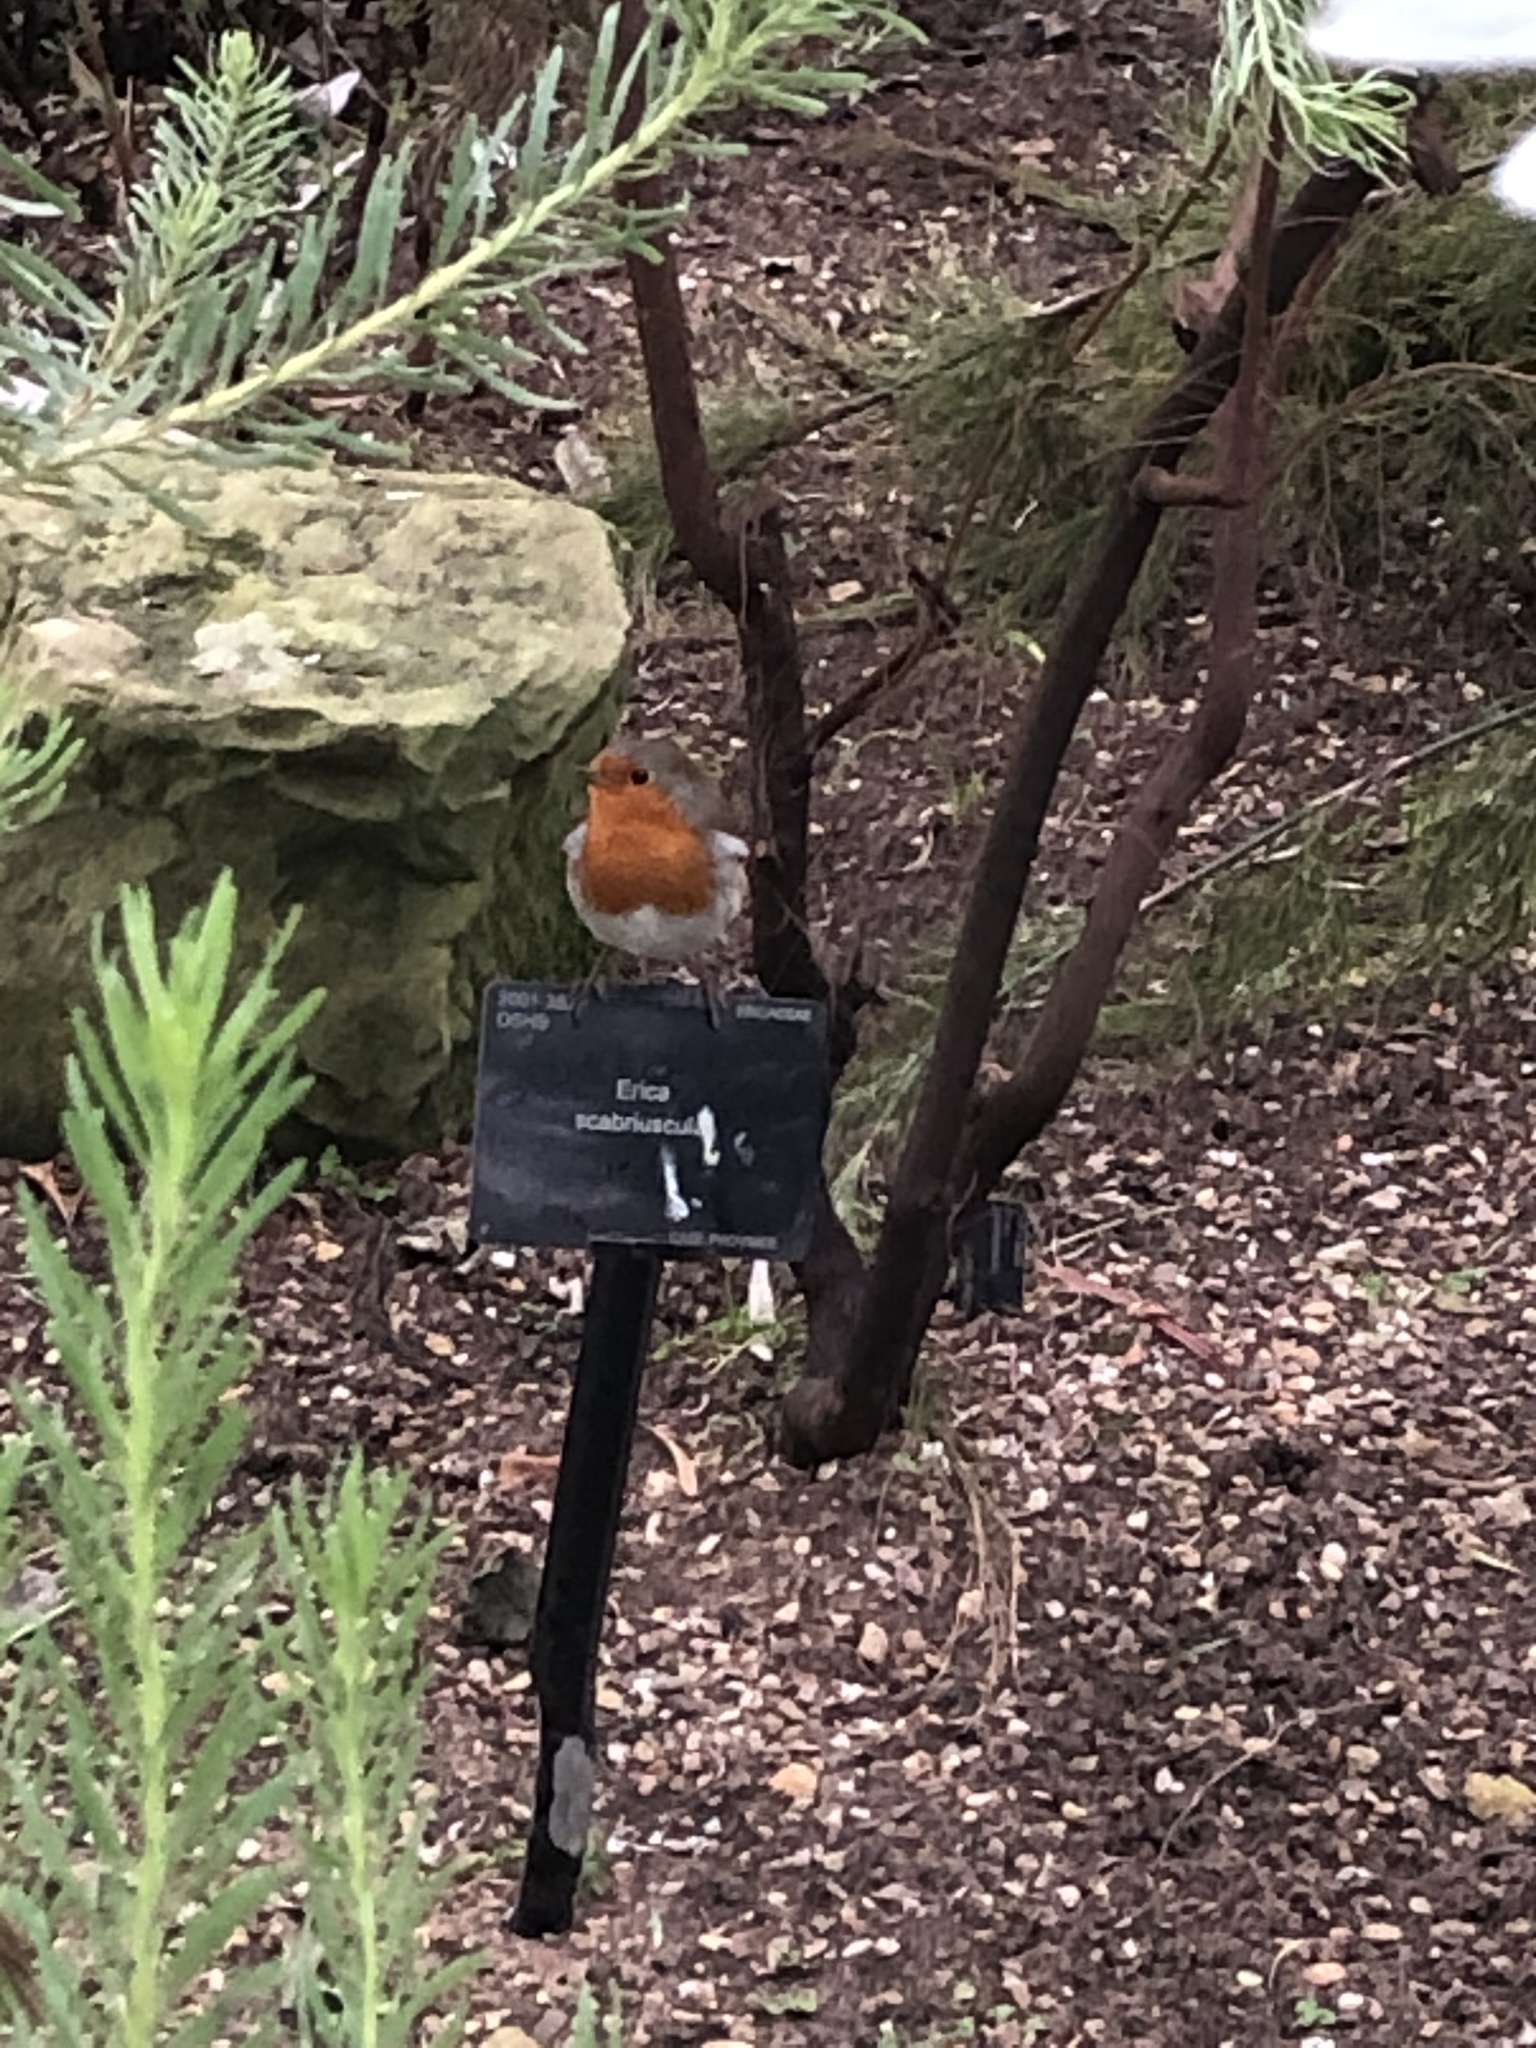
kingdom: Animalia
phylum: Chordata
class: Aves
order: Passeriformes
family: Muscicapidae
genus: Erithacus
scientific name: Erithacus rubecula
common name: European robin
